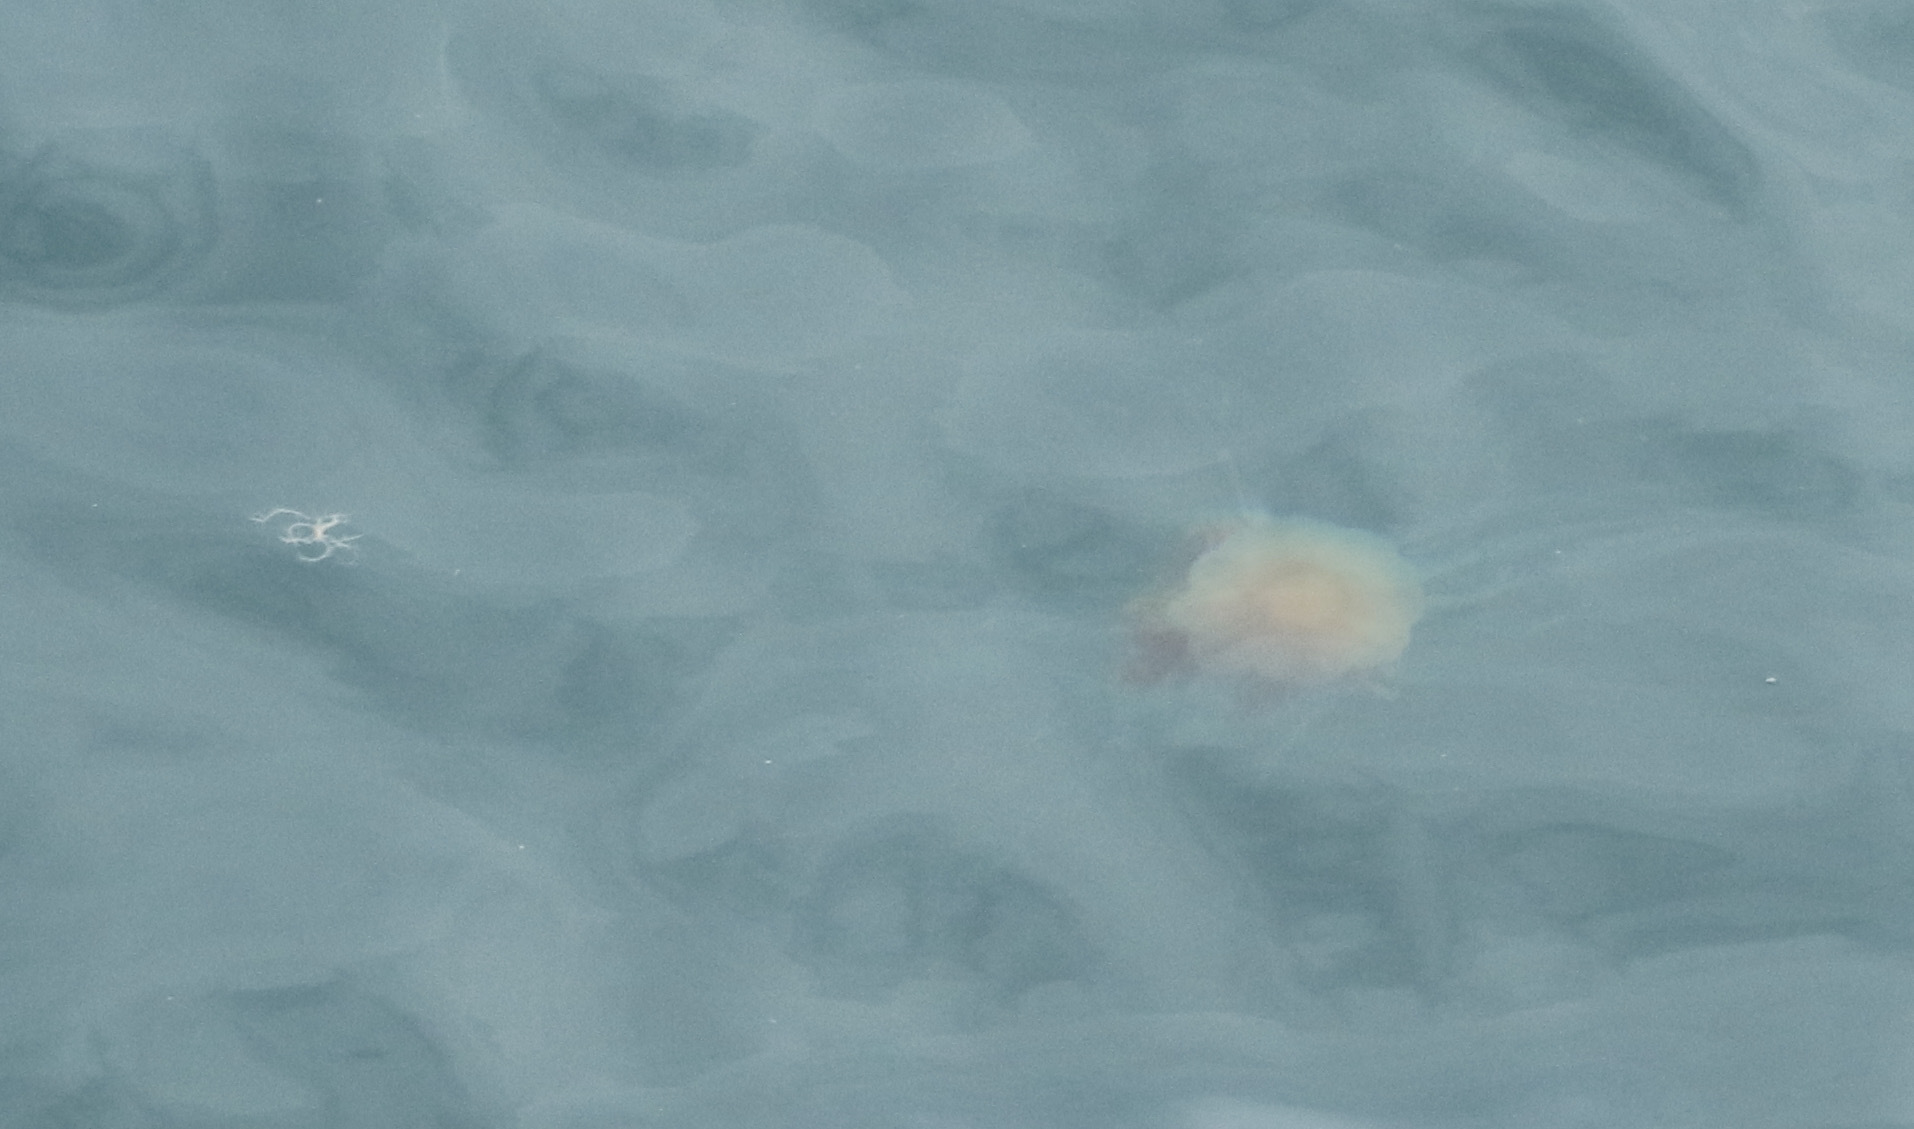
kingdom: Animalia
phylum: Cnidaria
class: Scyphozoa
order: Semaeostomeae
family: Cyaneidae
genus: Cyanea
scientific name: Cyanea capillata
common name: Lion's mane jellyfish
